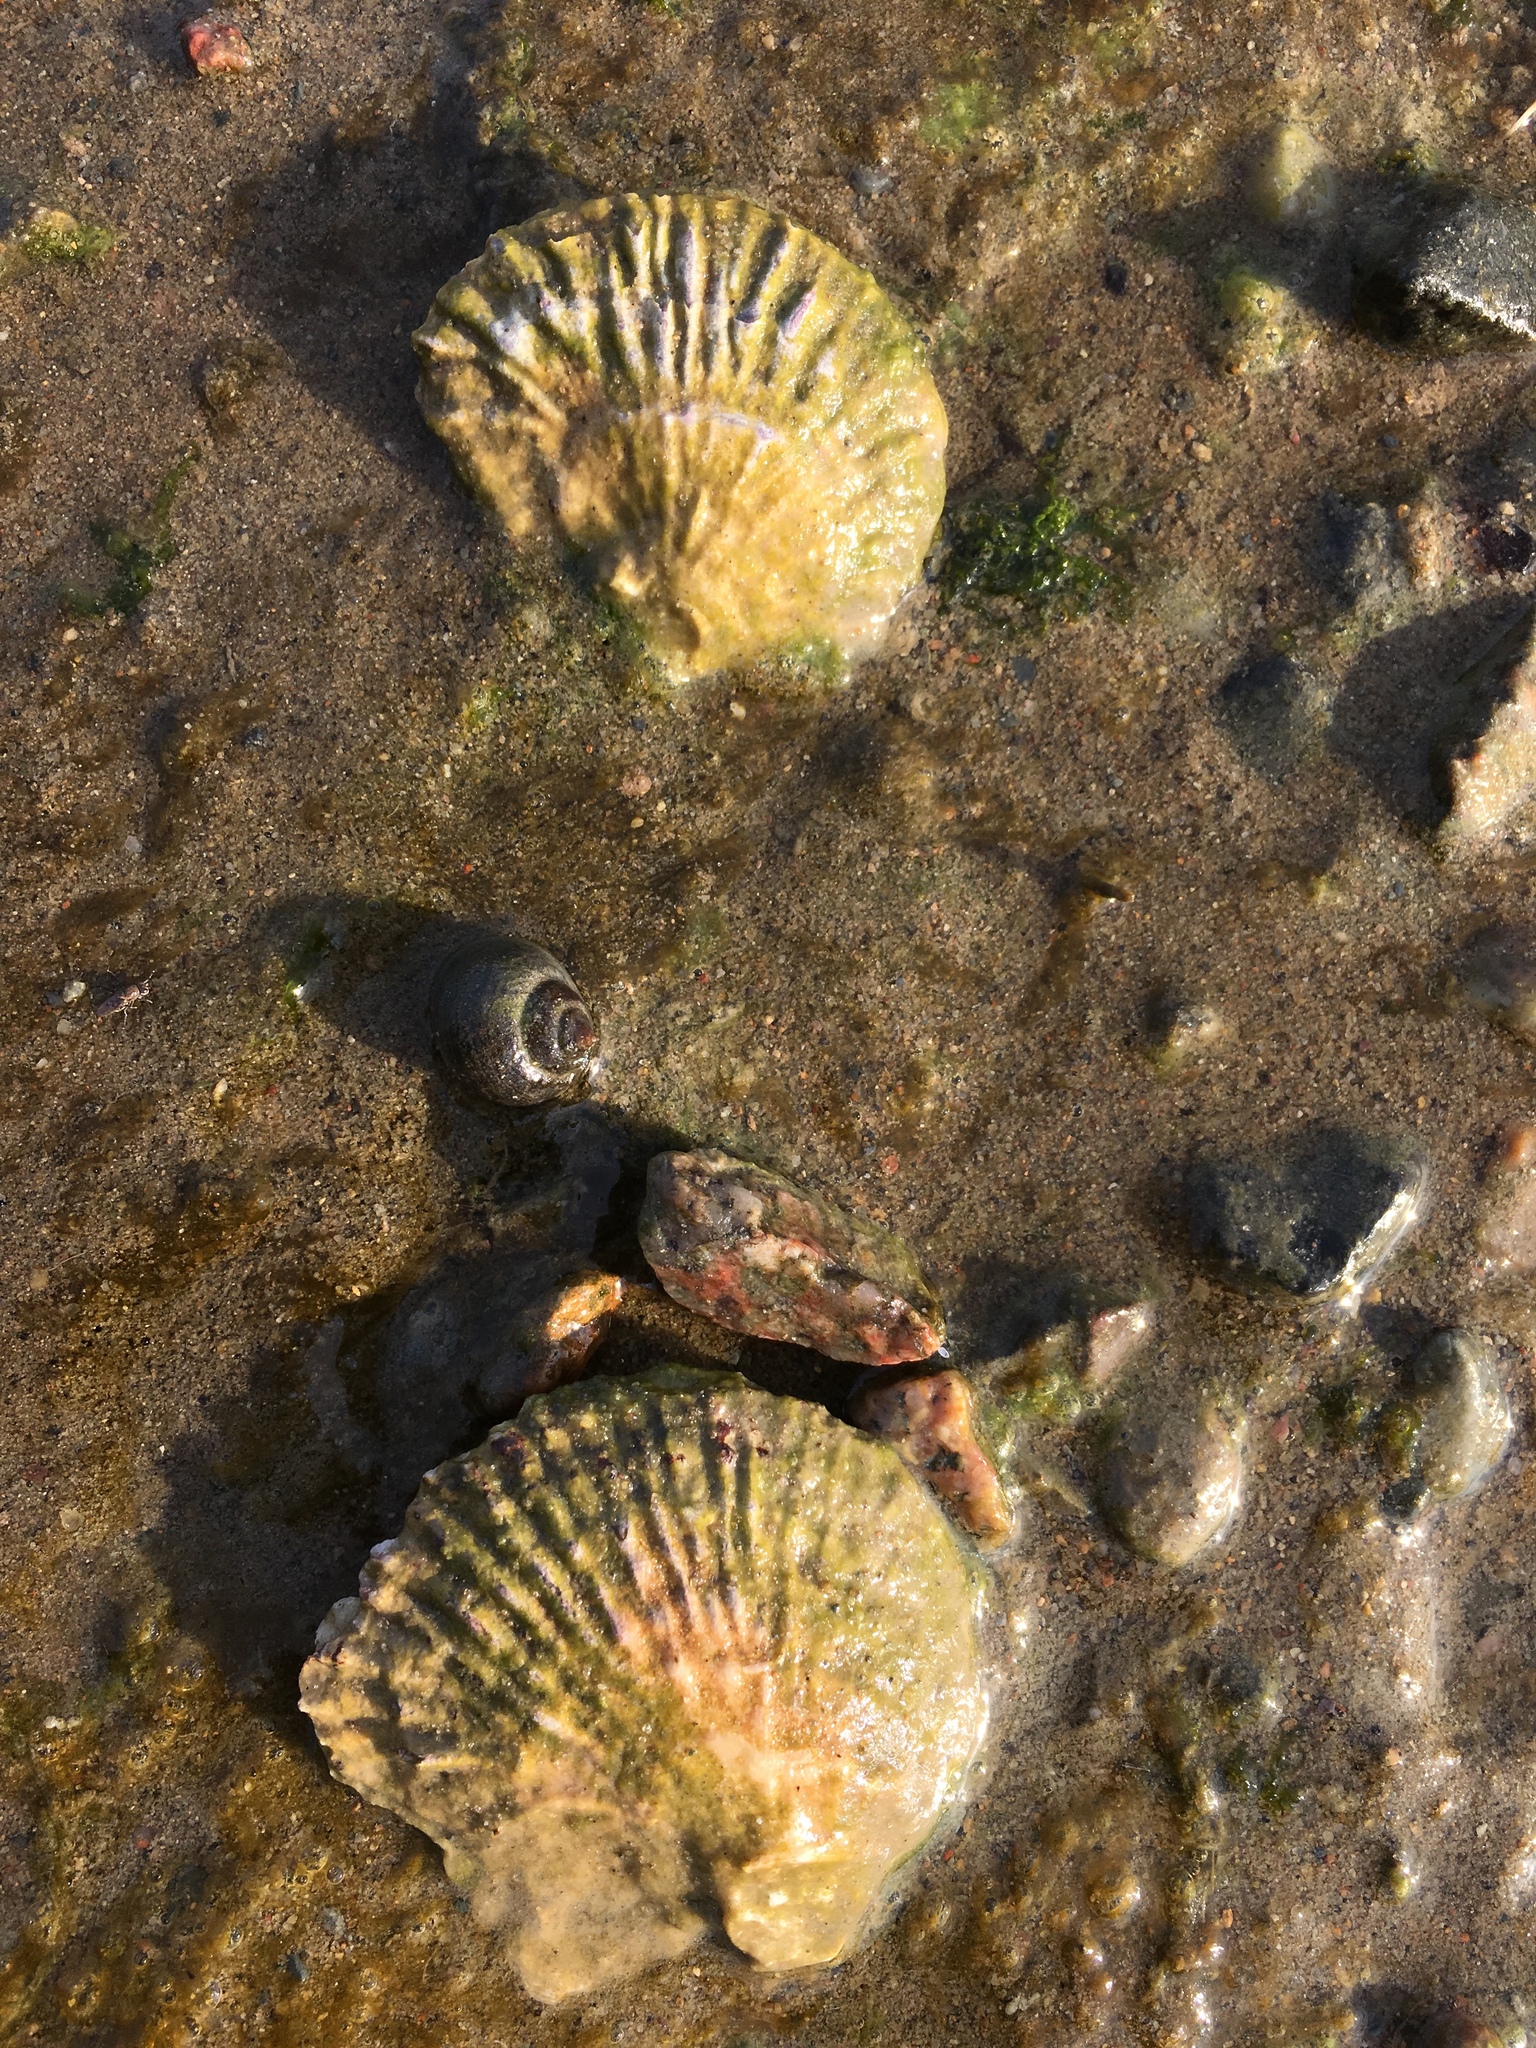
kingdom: Animalia
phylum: Mollusca
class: Bivalvia
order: Ostreida
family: Ostreidae
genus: Ostrea
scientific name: Ostrea edulis
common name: Flat oyster
